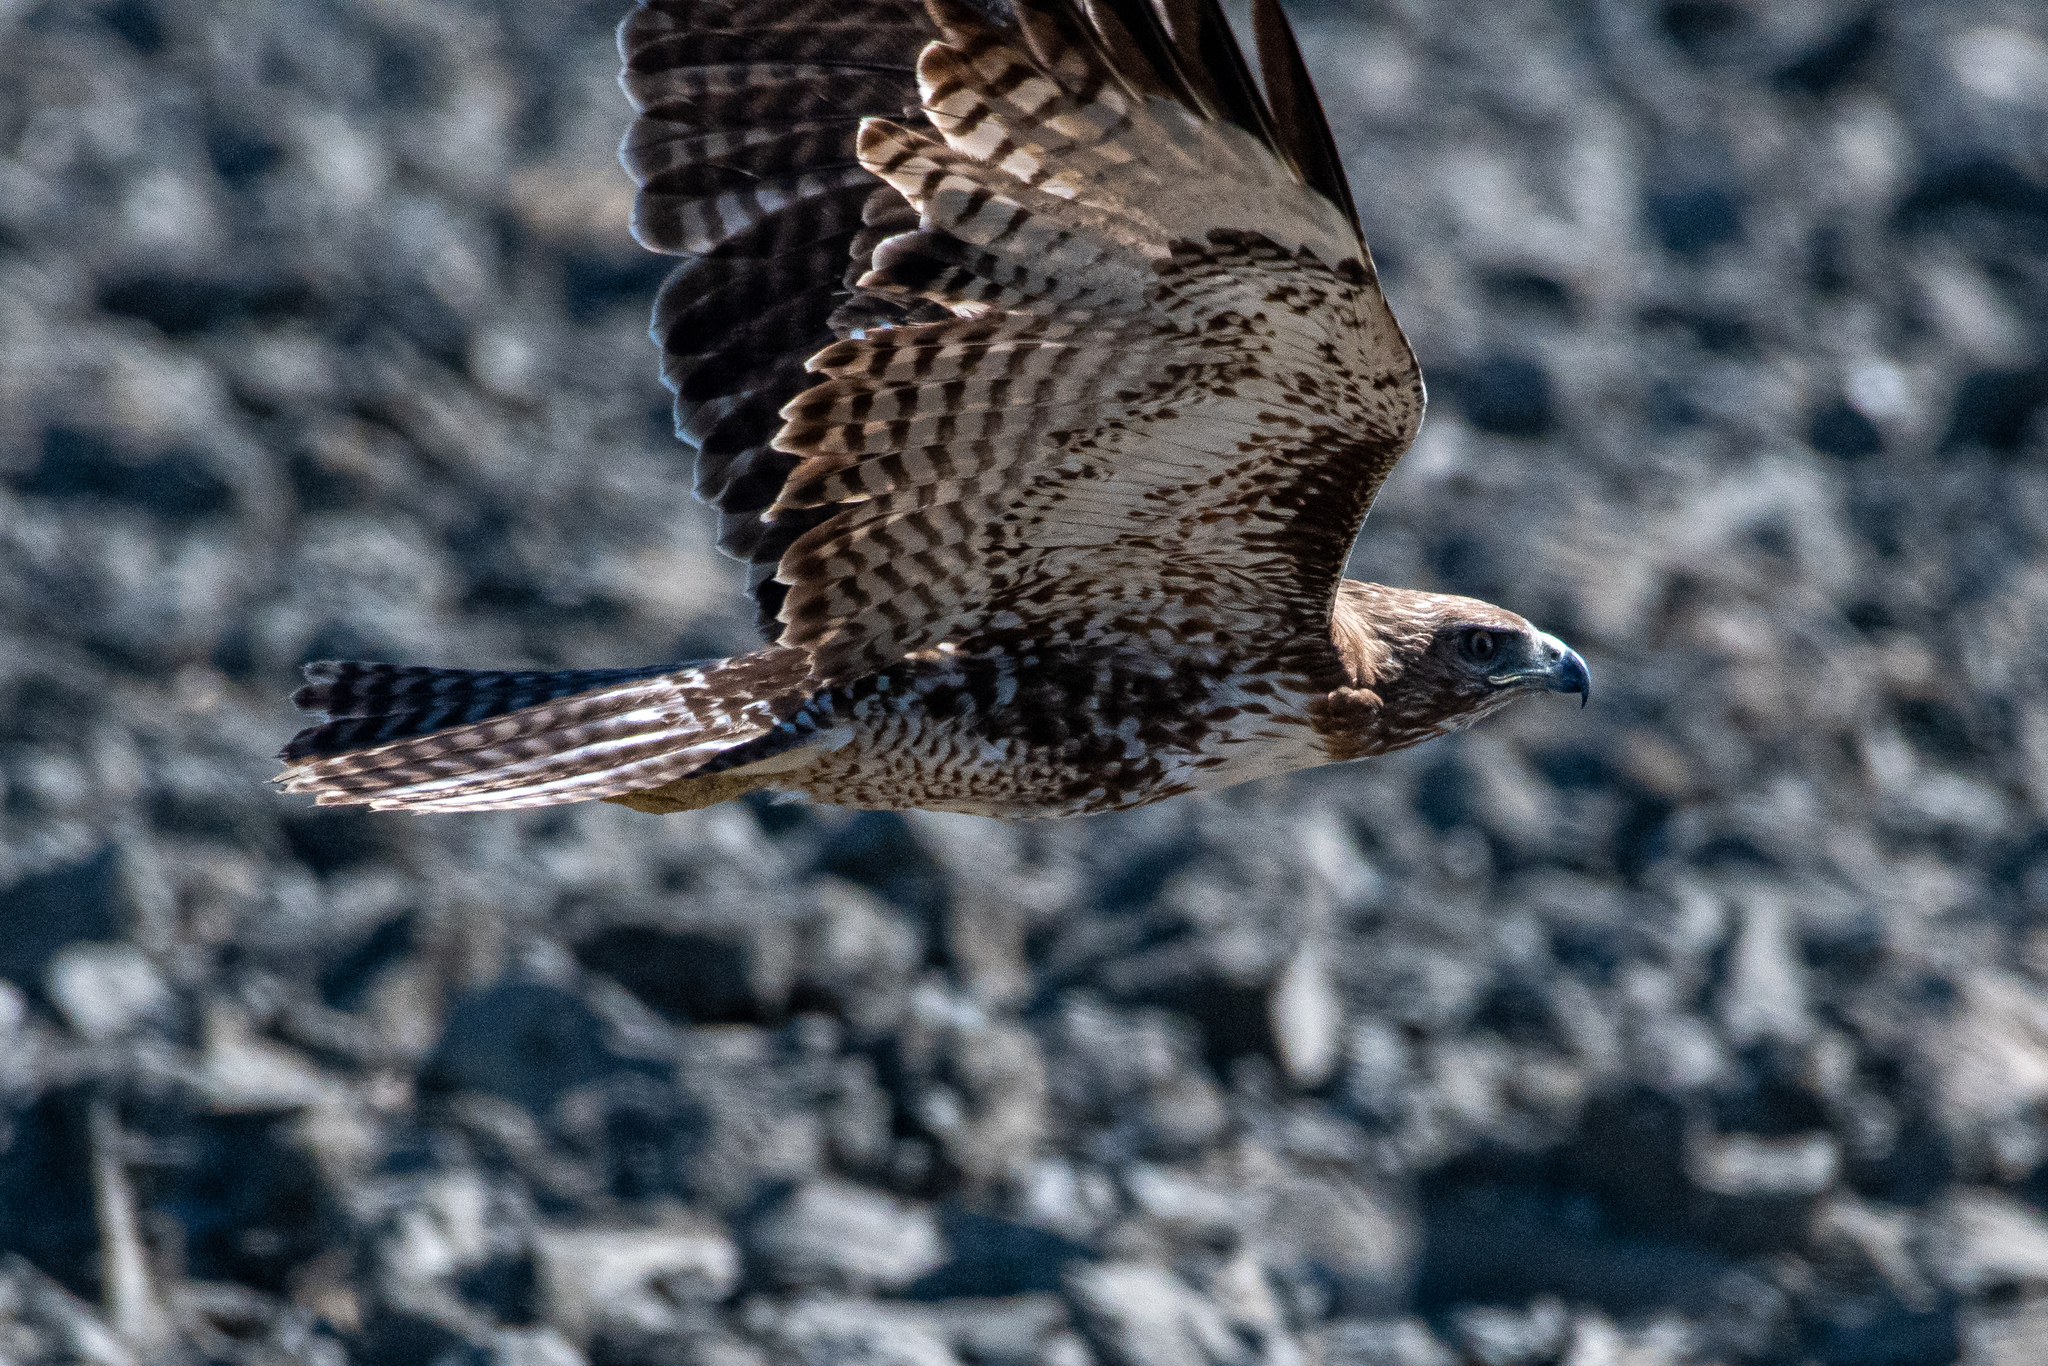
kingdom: Animalia
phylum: Chordata
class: Aves
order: Accipitriformes
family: Accipitridae
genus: Buteo
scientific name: Buteo jamaicensis
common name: Red-tailed hawk
